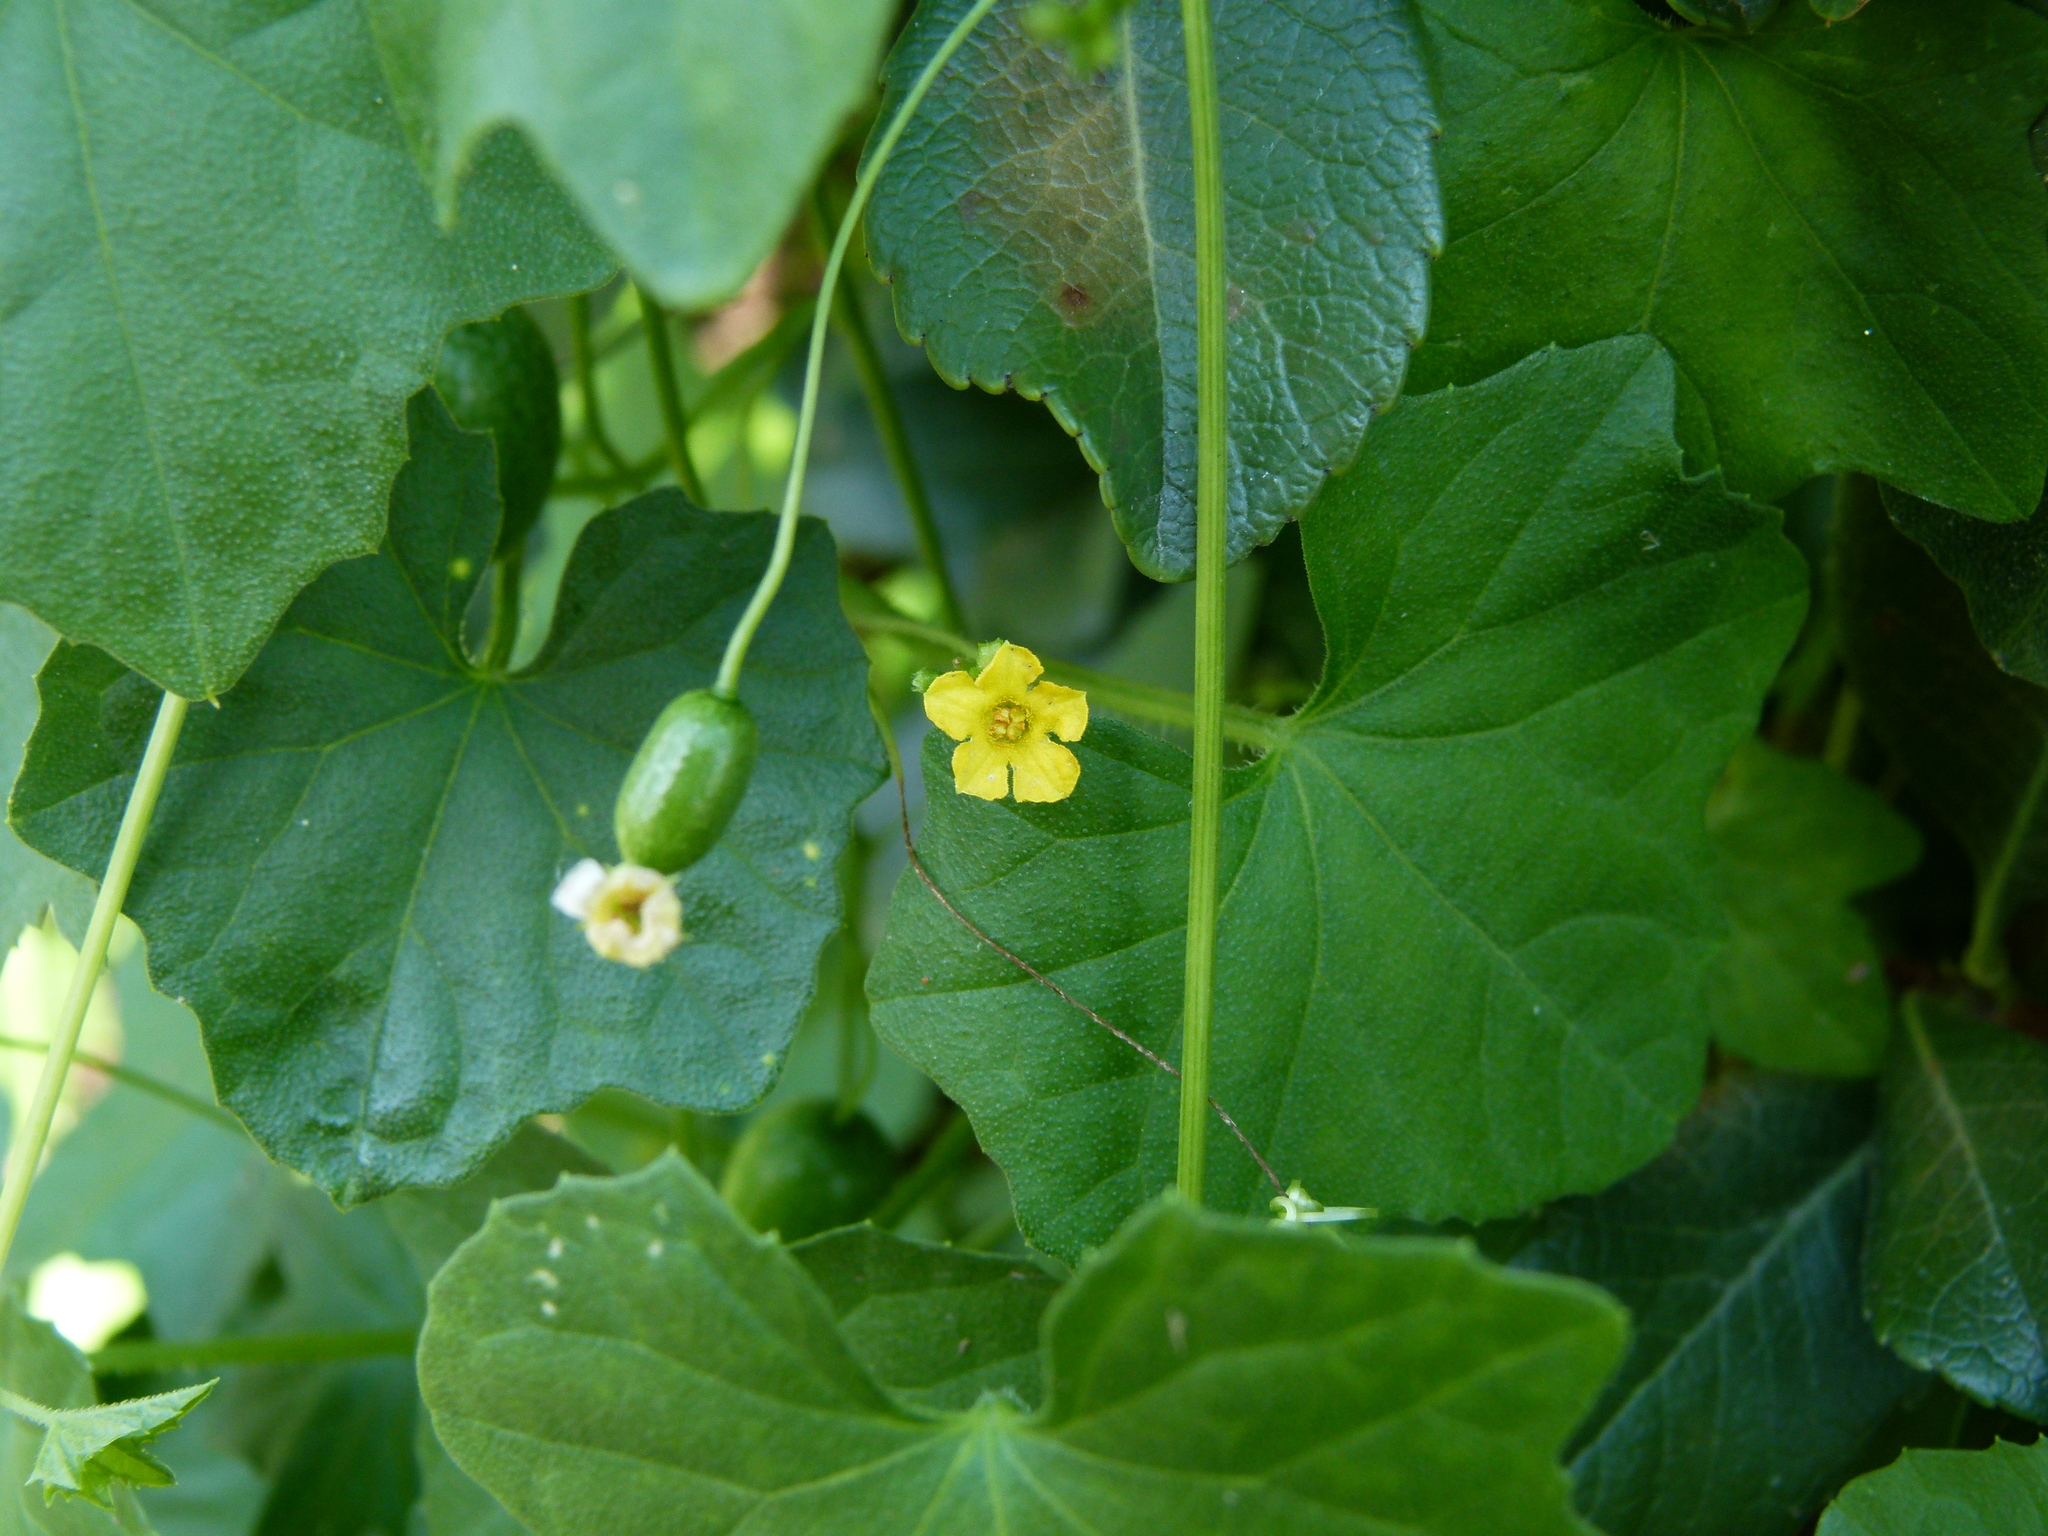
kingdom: Plantae
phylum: Tracheophyta
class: Magnoliopsida
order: Cucurbitales
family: Cucurbitaceae
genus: Melothria
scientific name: Melothria pendula
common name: Creeping-cucumber
